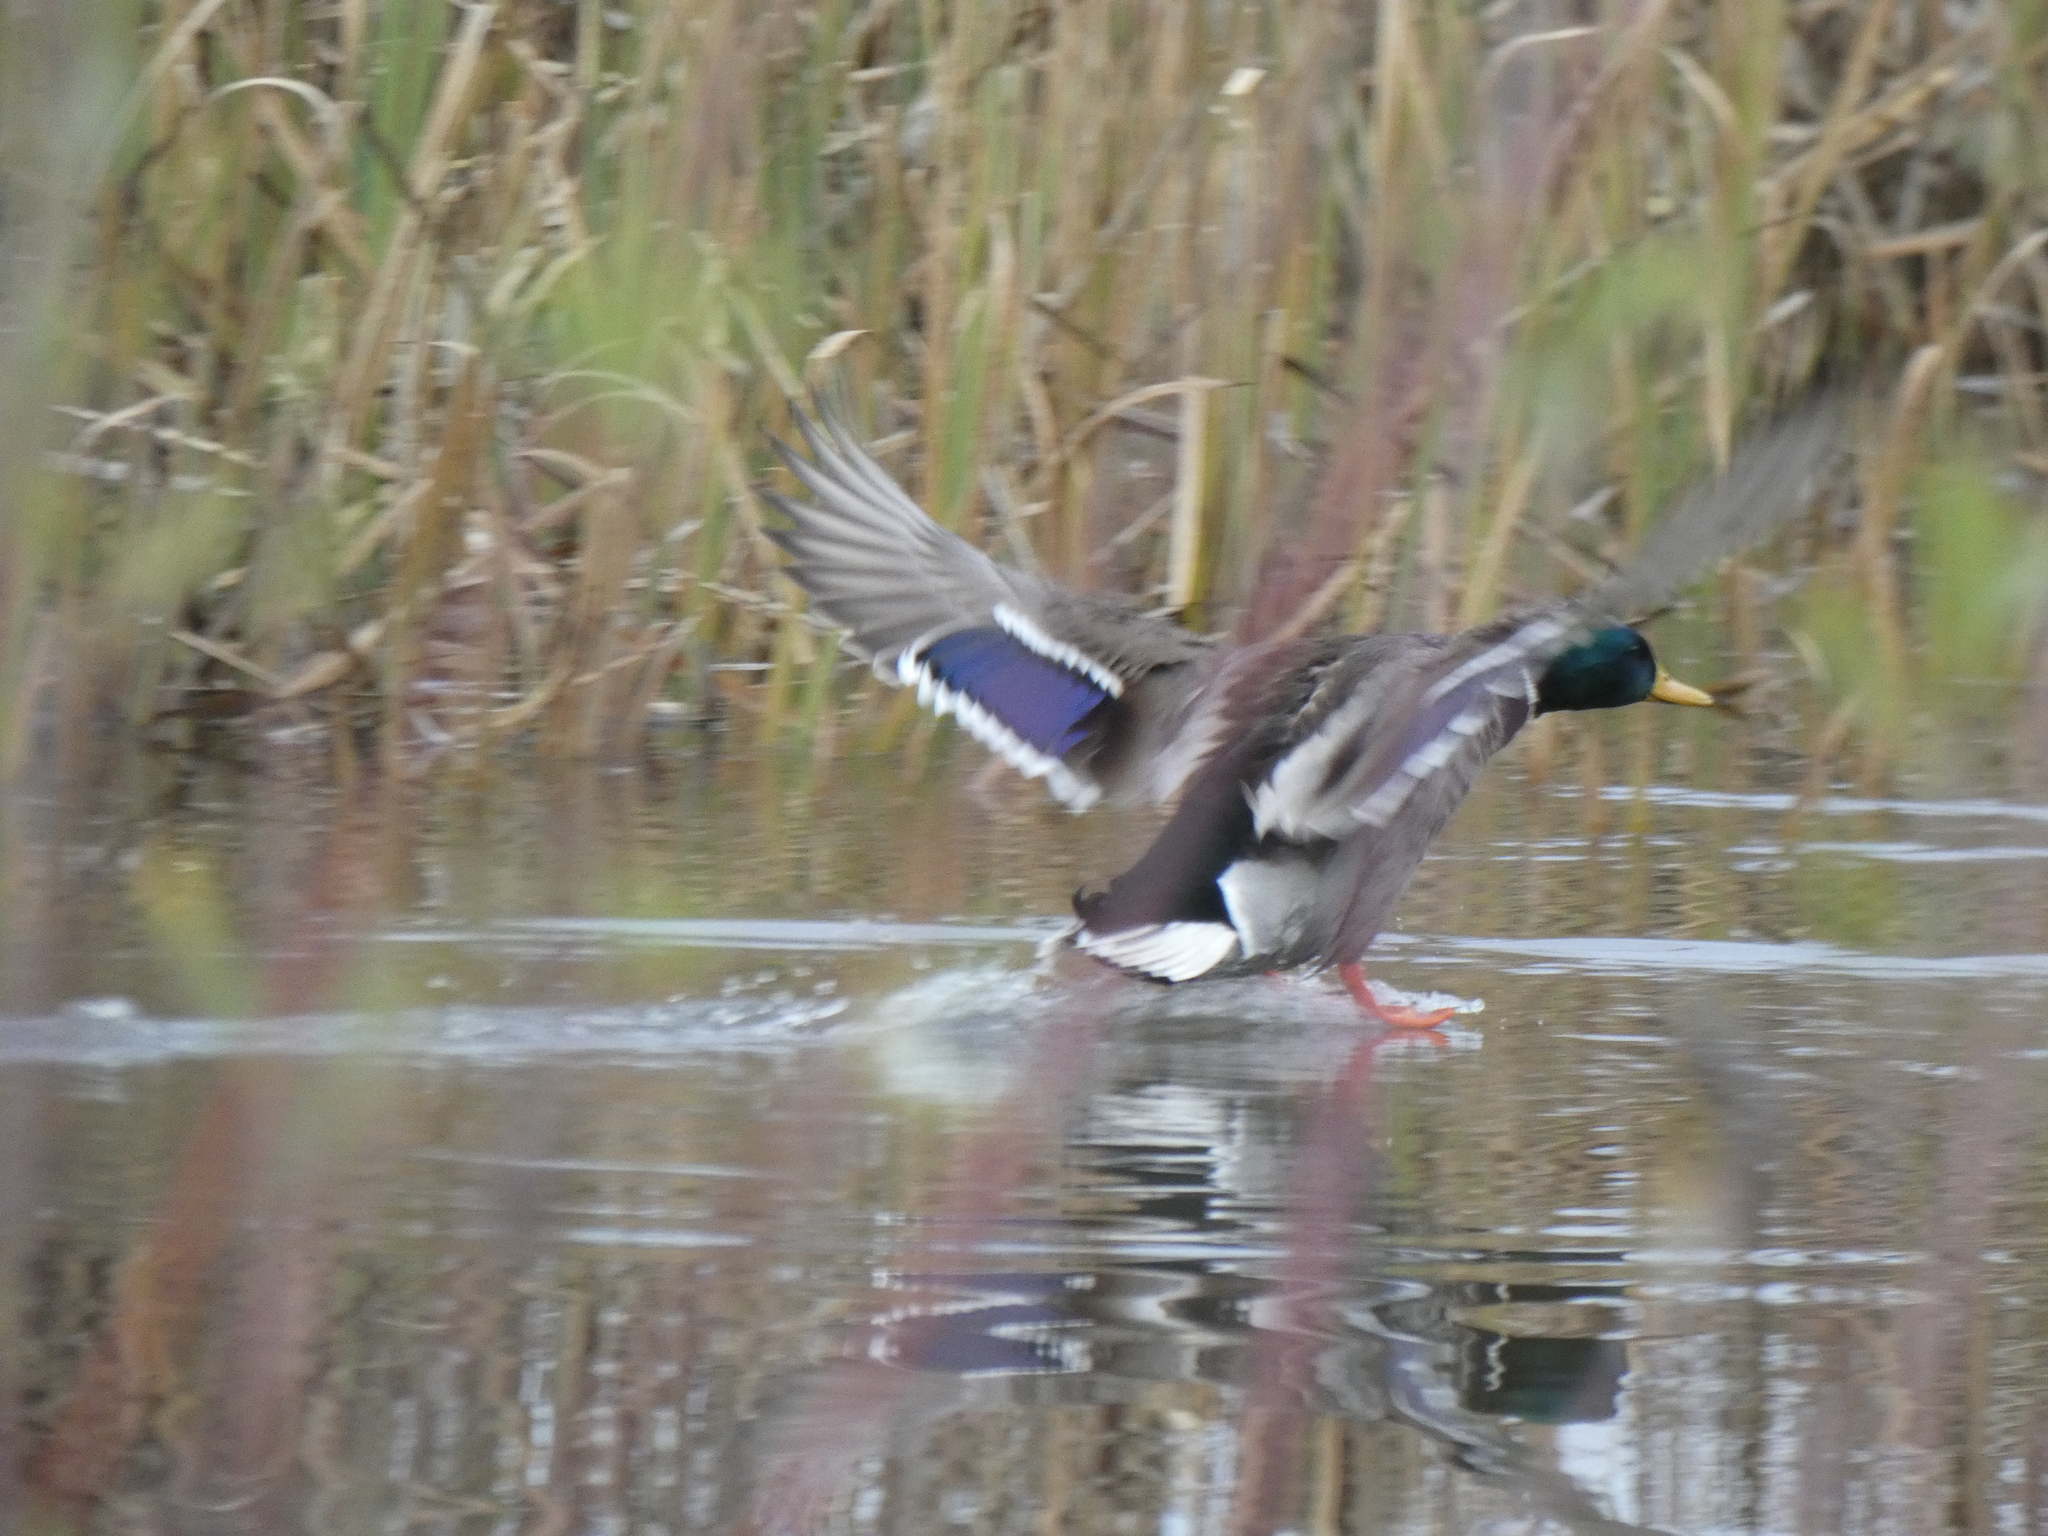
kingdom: Animalia
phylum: Chordata
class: Aves
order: Anseriformes
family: Anatidae
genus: Anas
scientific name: Anas platyrhynchos
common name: Mallard
